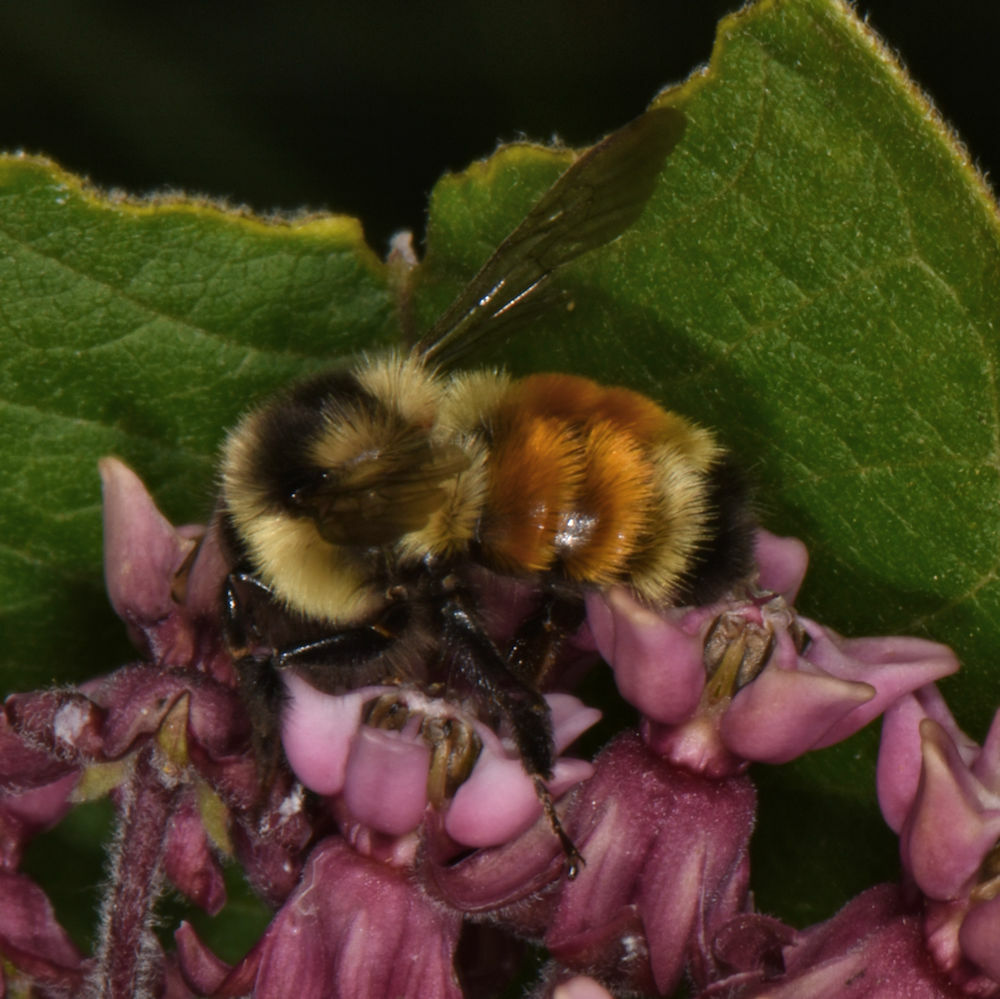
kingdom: Animalia
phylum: Arthropoda
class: Insecta
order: Hymenoptera
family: Apidae
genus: Bombus
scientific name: Bombus ternarius
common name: Tri-colored bumble bee
